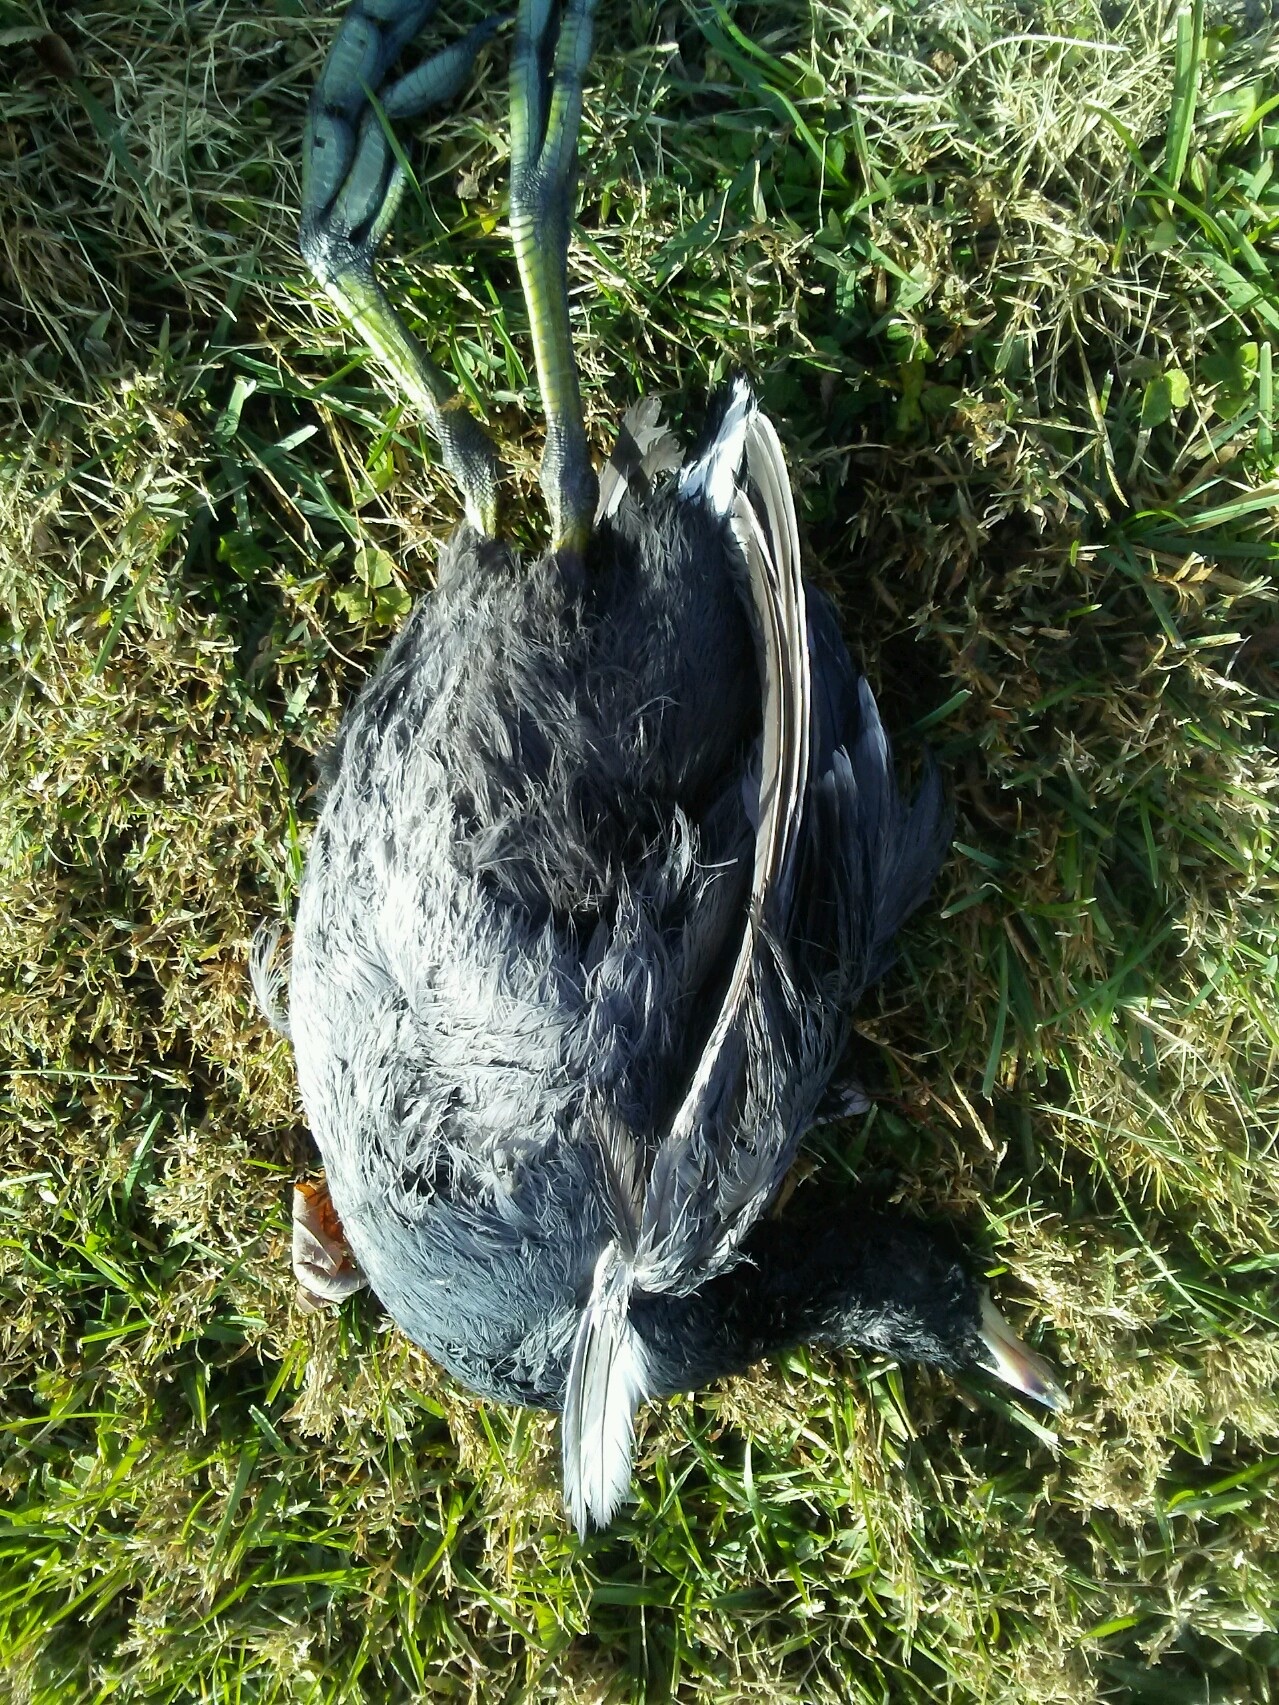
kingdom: Animalia
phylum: Chordata
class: Aves
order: Gruiformes
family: Rallidae
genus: Fulica
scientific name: Fulica americana
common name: American coot
